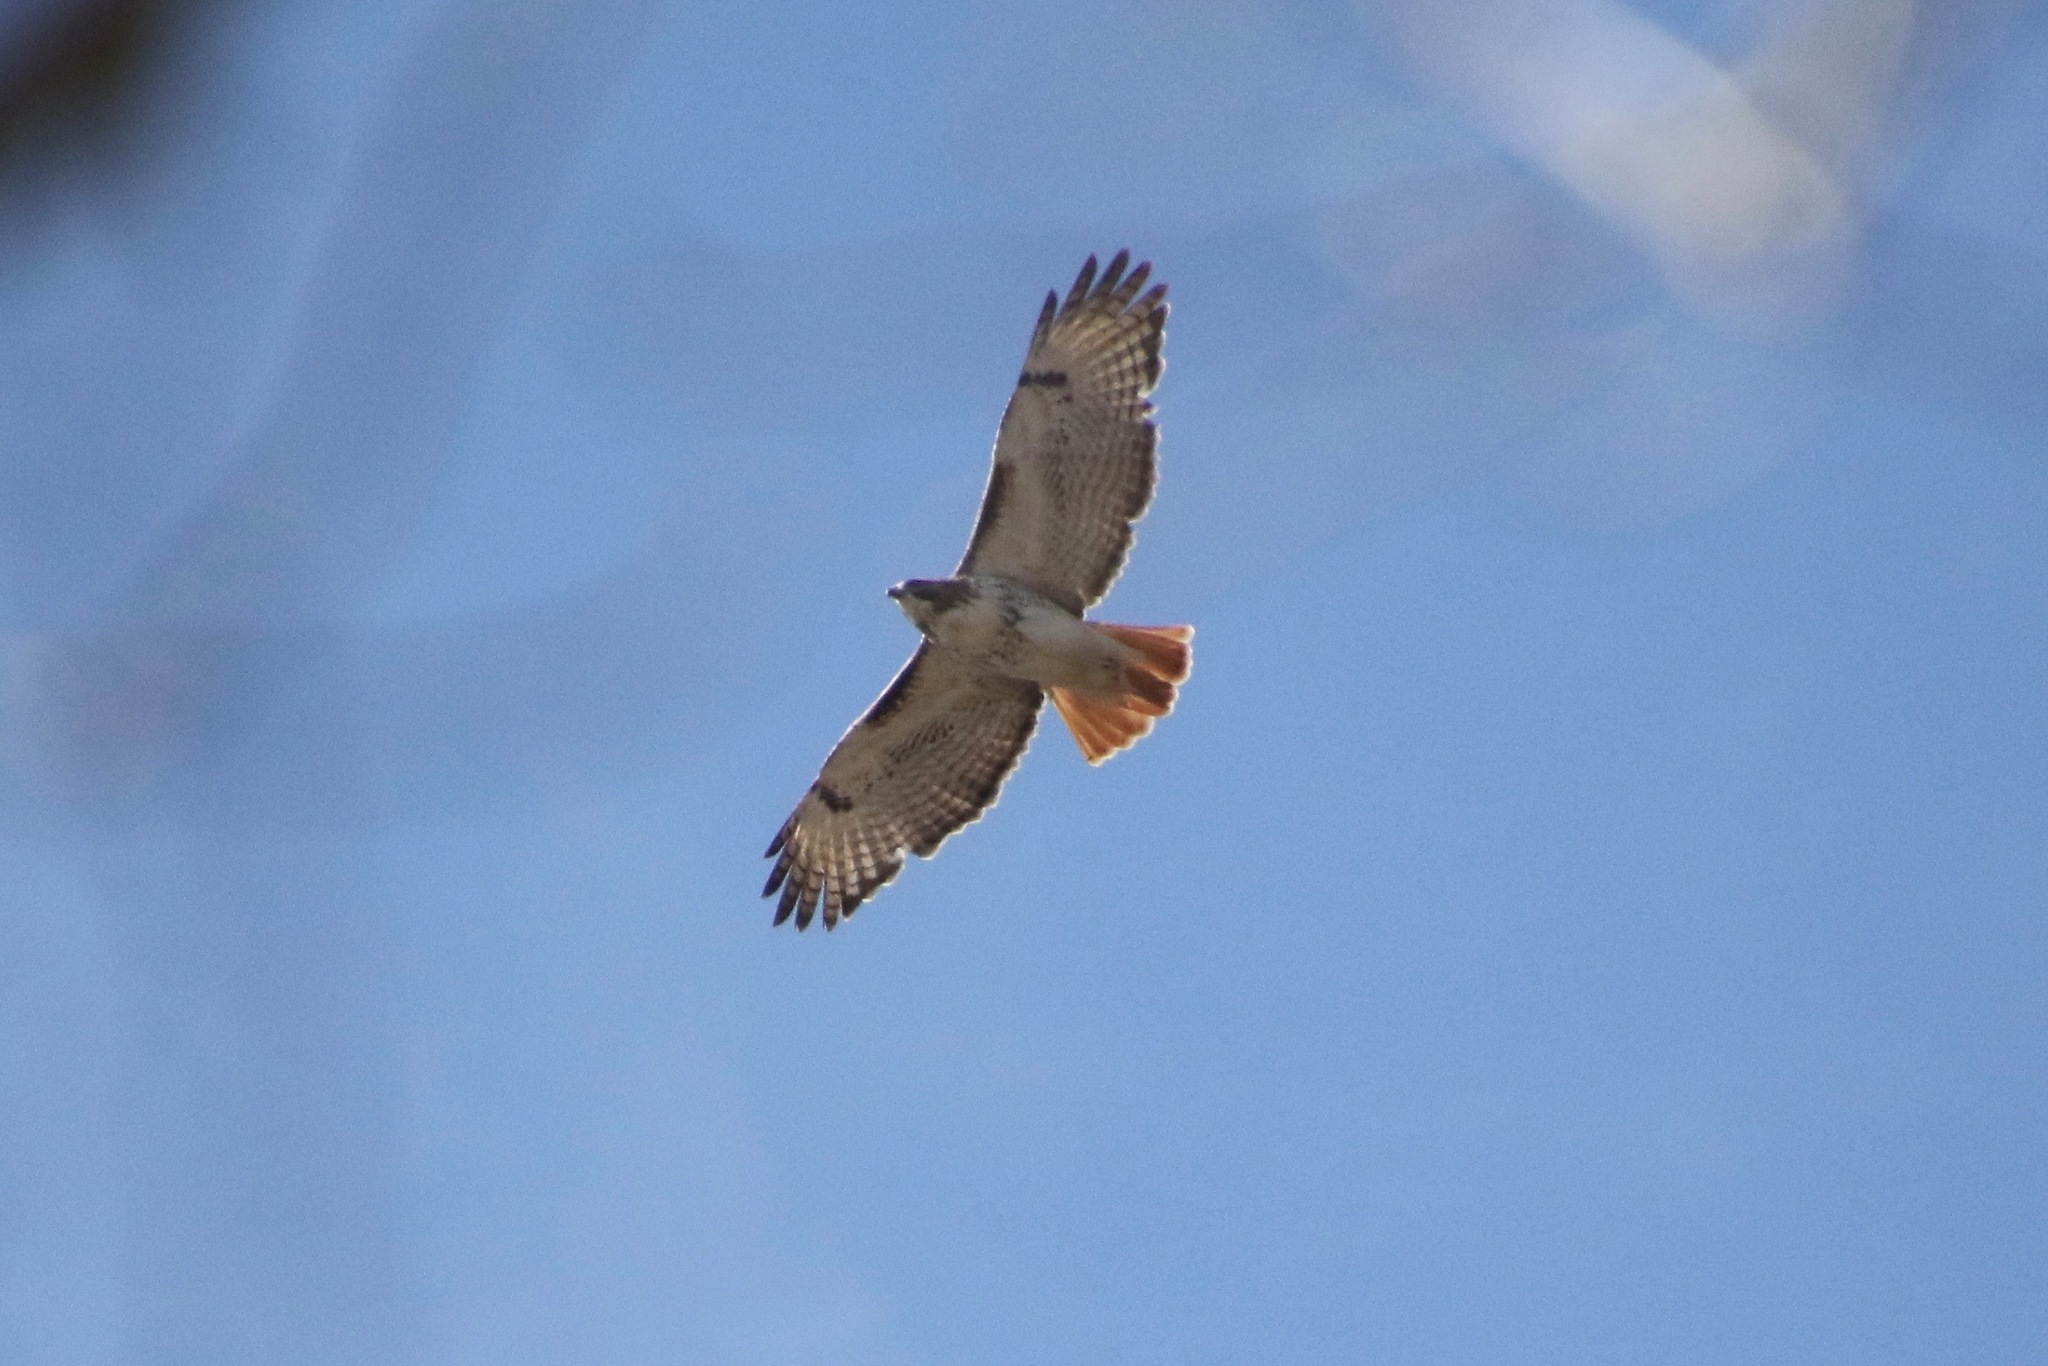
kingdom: Animalia
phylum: Chordata
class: Aves
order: Accipitriformes
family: Accipitridae
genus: Buteo
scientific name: Buteo jamaicensis
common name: Red-tailed hawk
